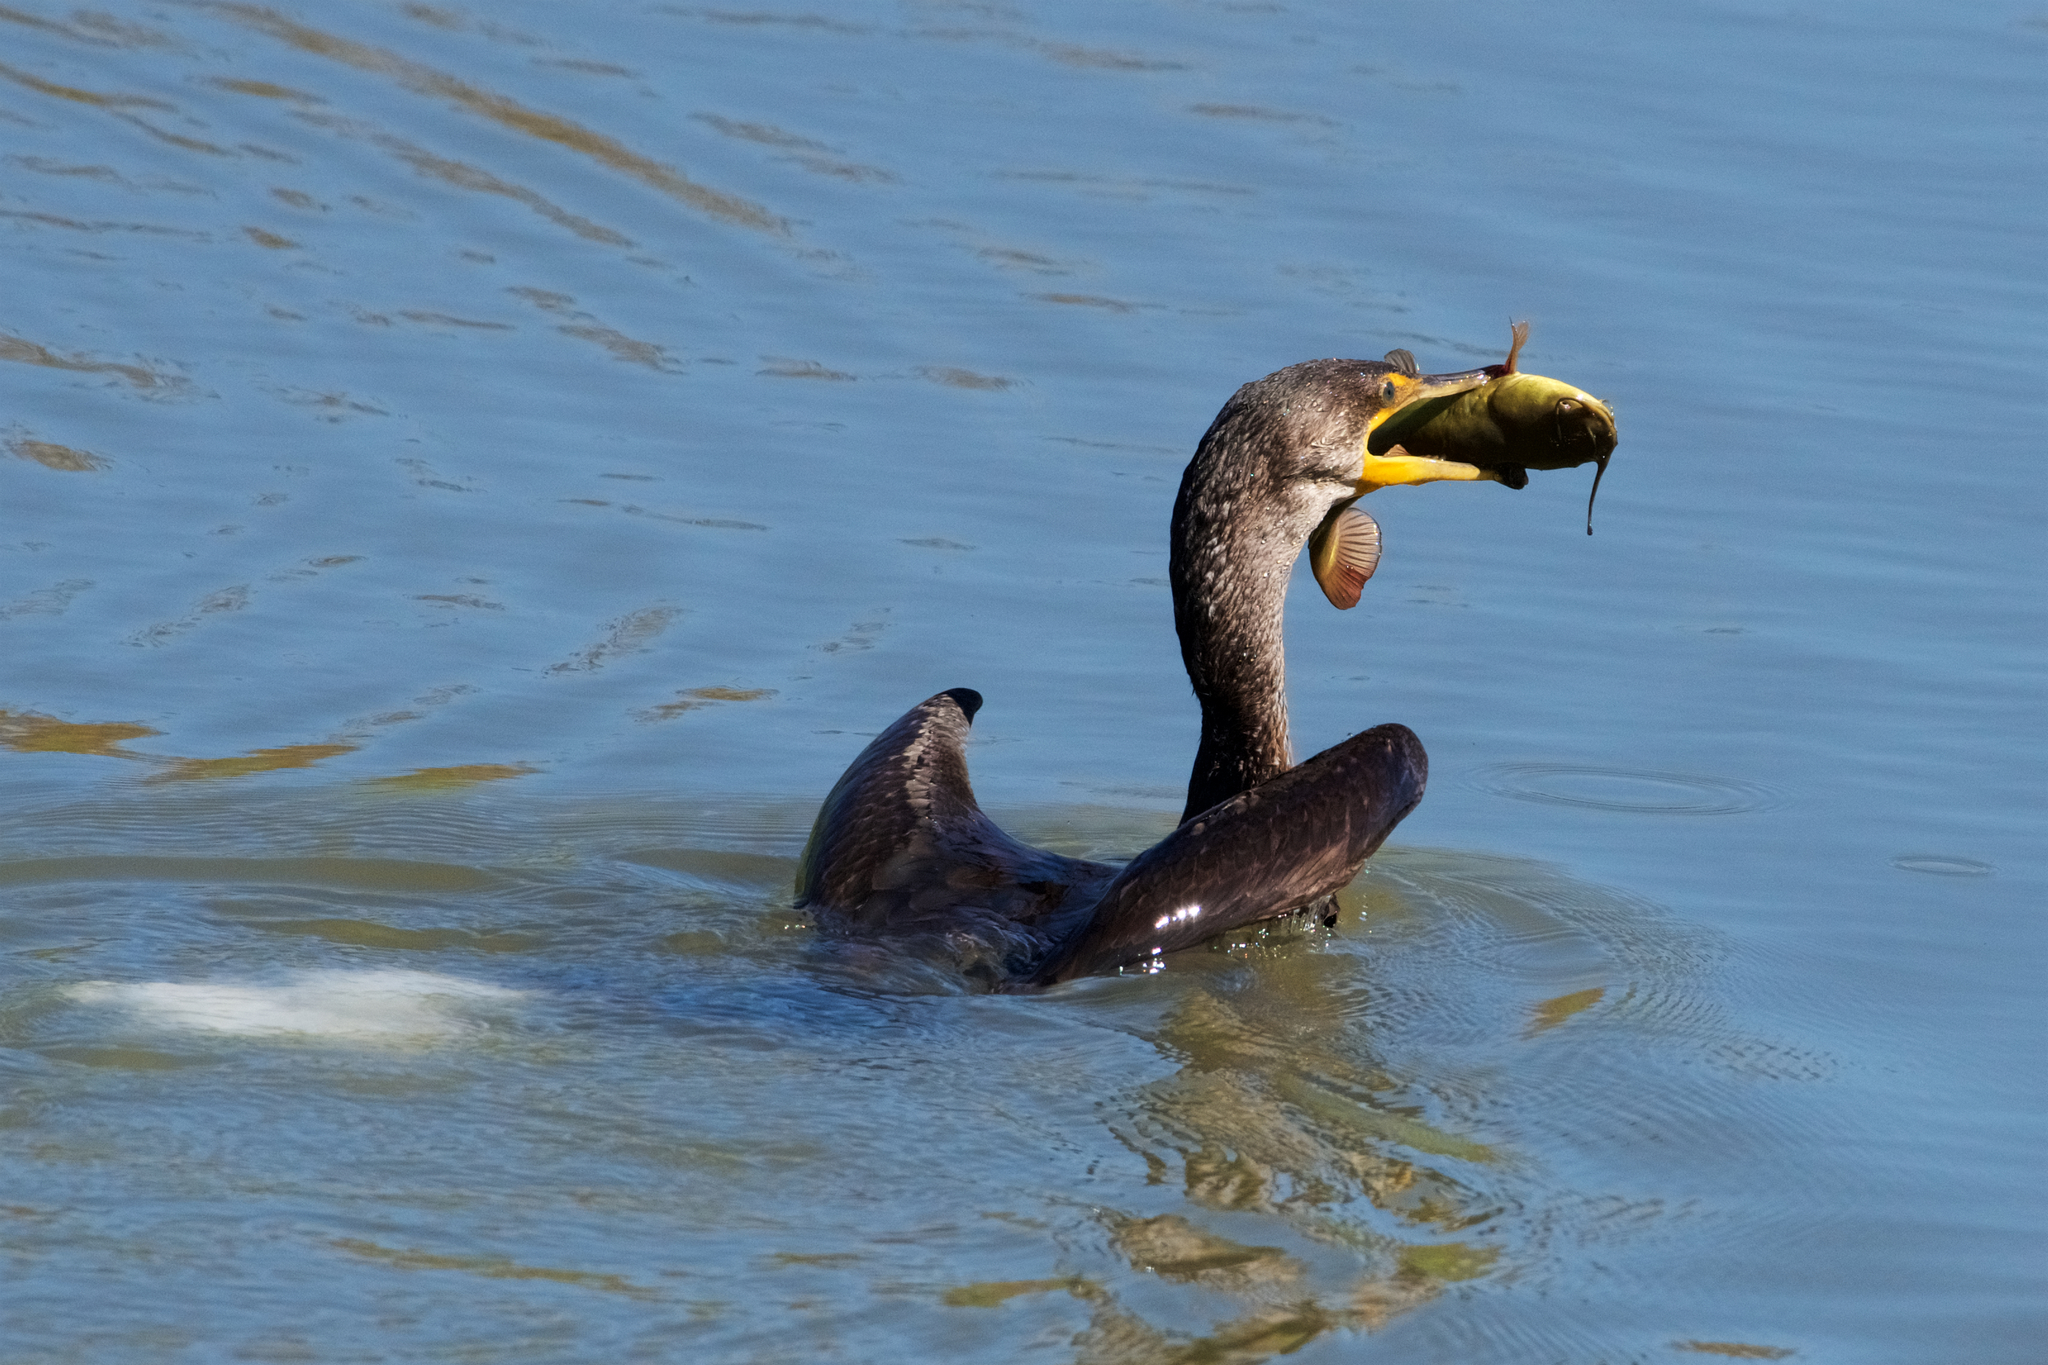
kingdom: Animalia
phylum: Chordata
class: Aves
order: Suliformes
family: Phalacrocoracidae
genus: Phalacrocorax
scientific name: Phalacrocorax auritus
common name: Double-crested cormorant
